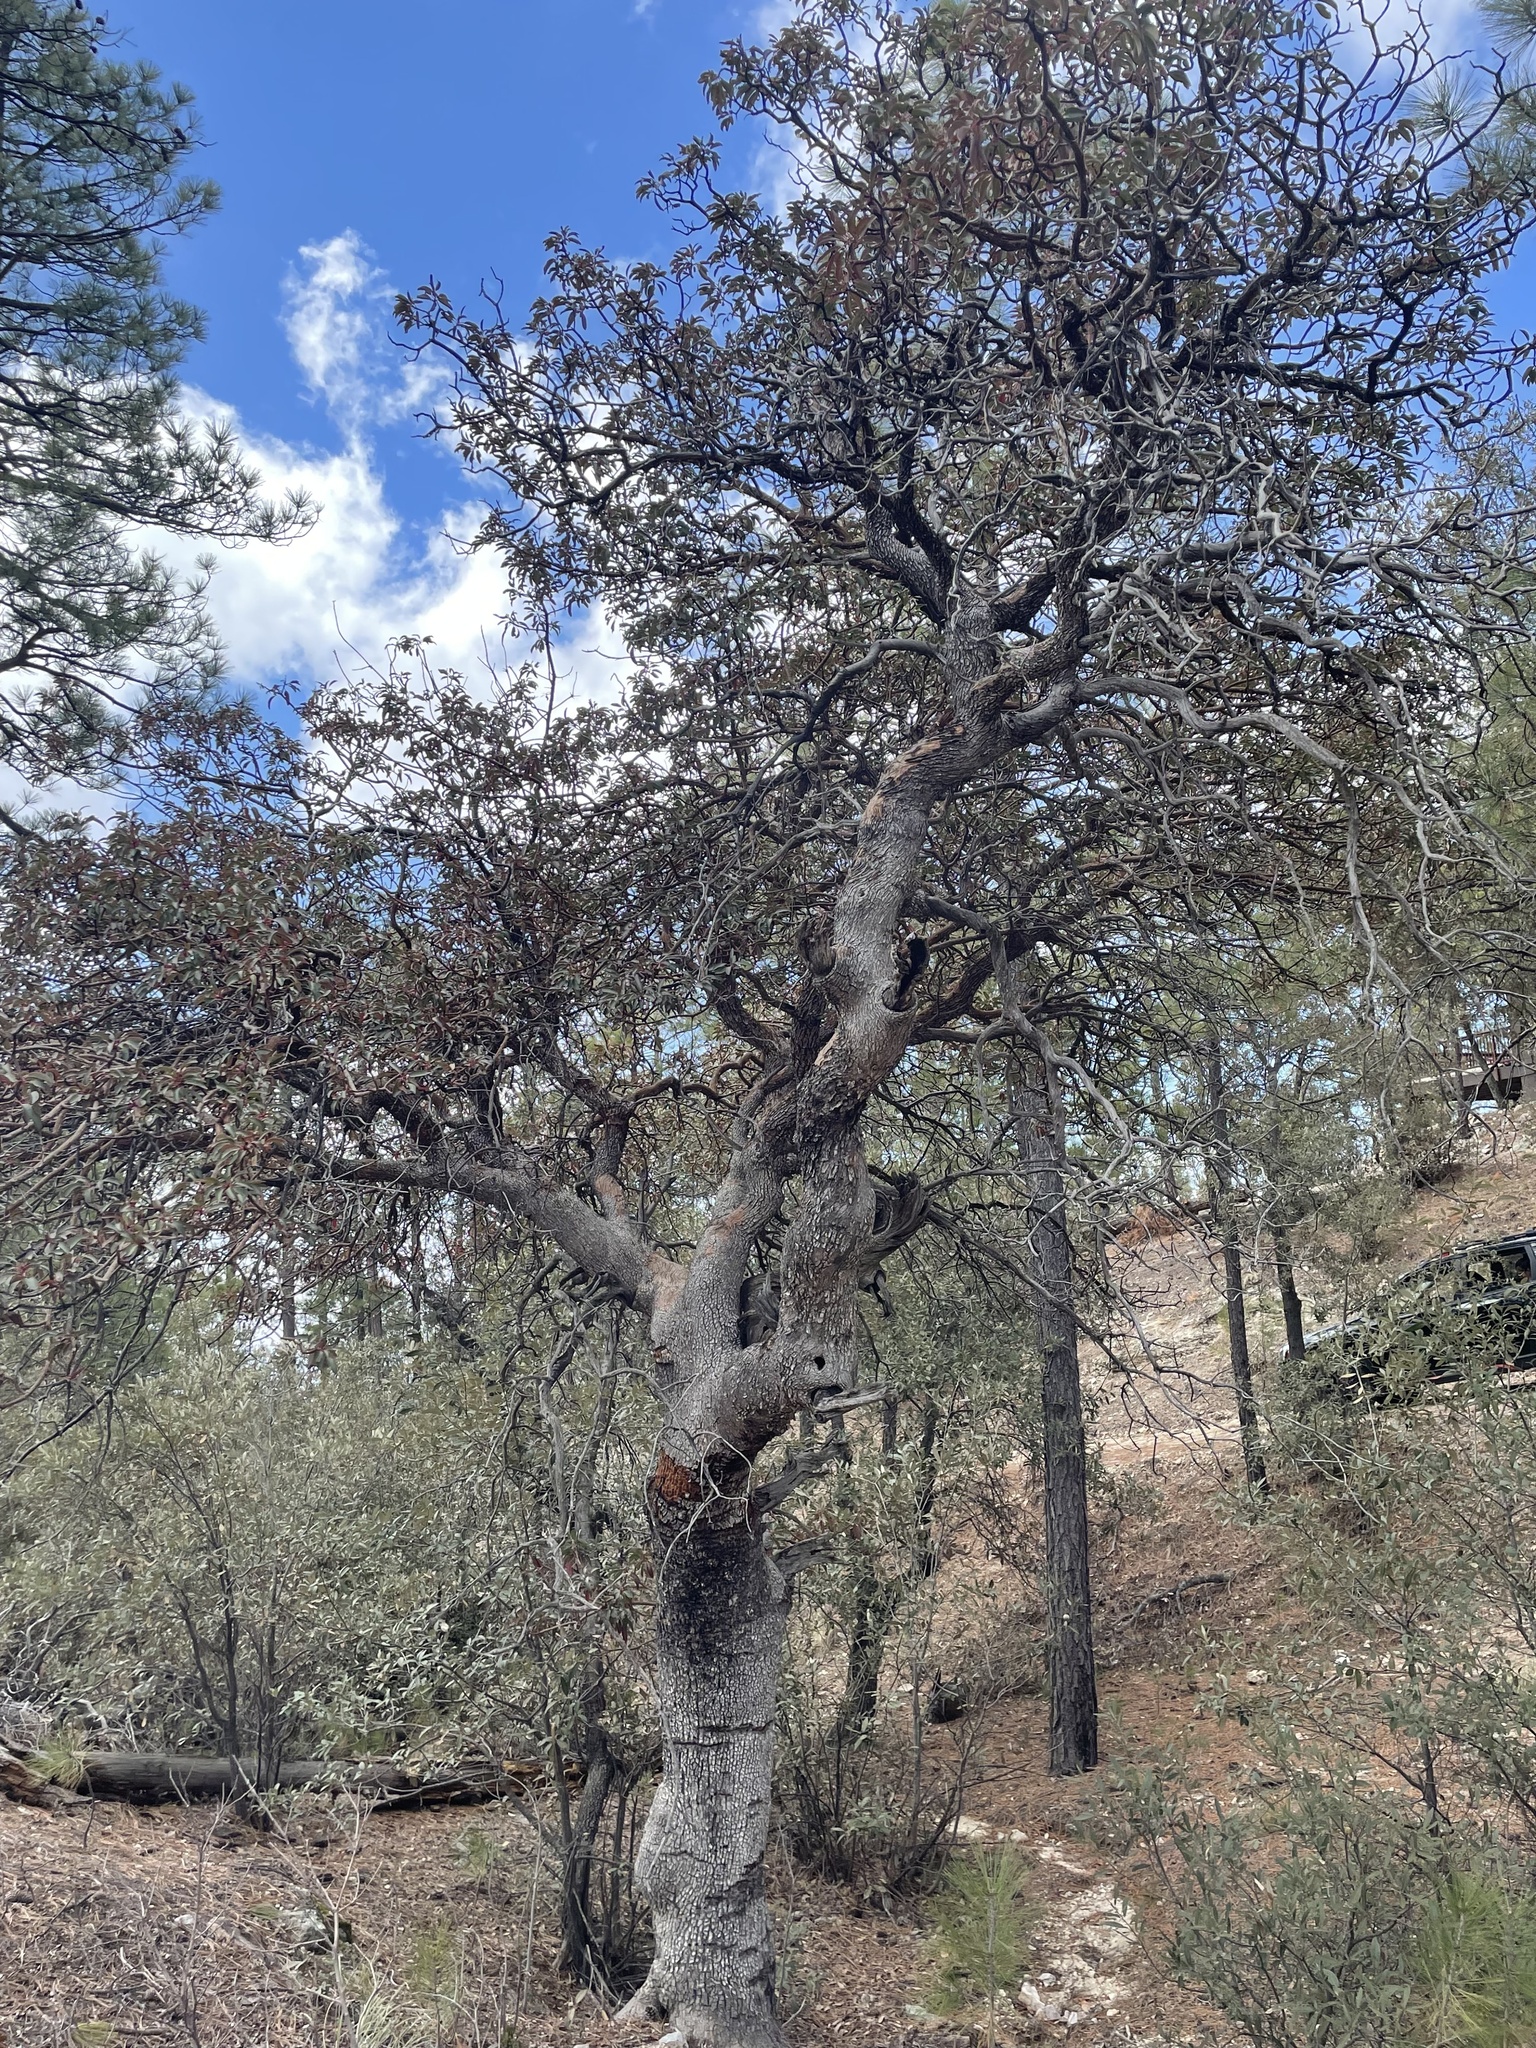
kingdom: Plantae
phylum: Tracheophyta
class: Magnoliopsida
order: Ericales
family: Ericaceae
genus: Arbutus
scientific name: Arbutus arizonica
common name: Arizona madrone
